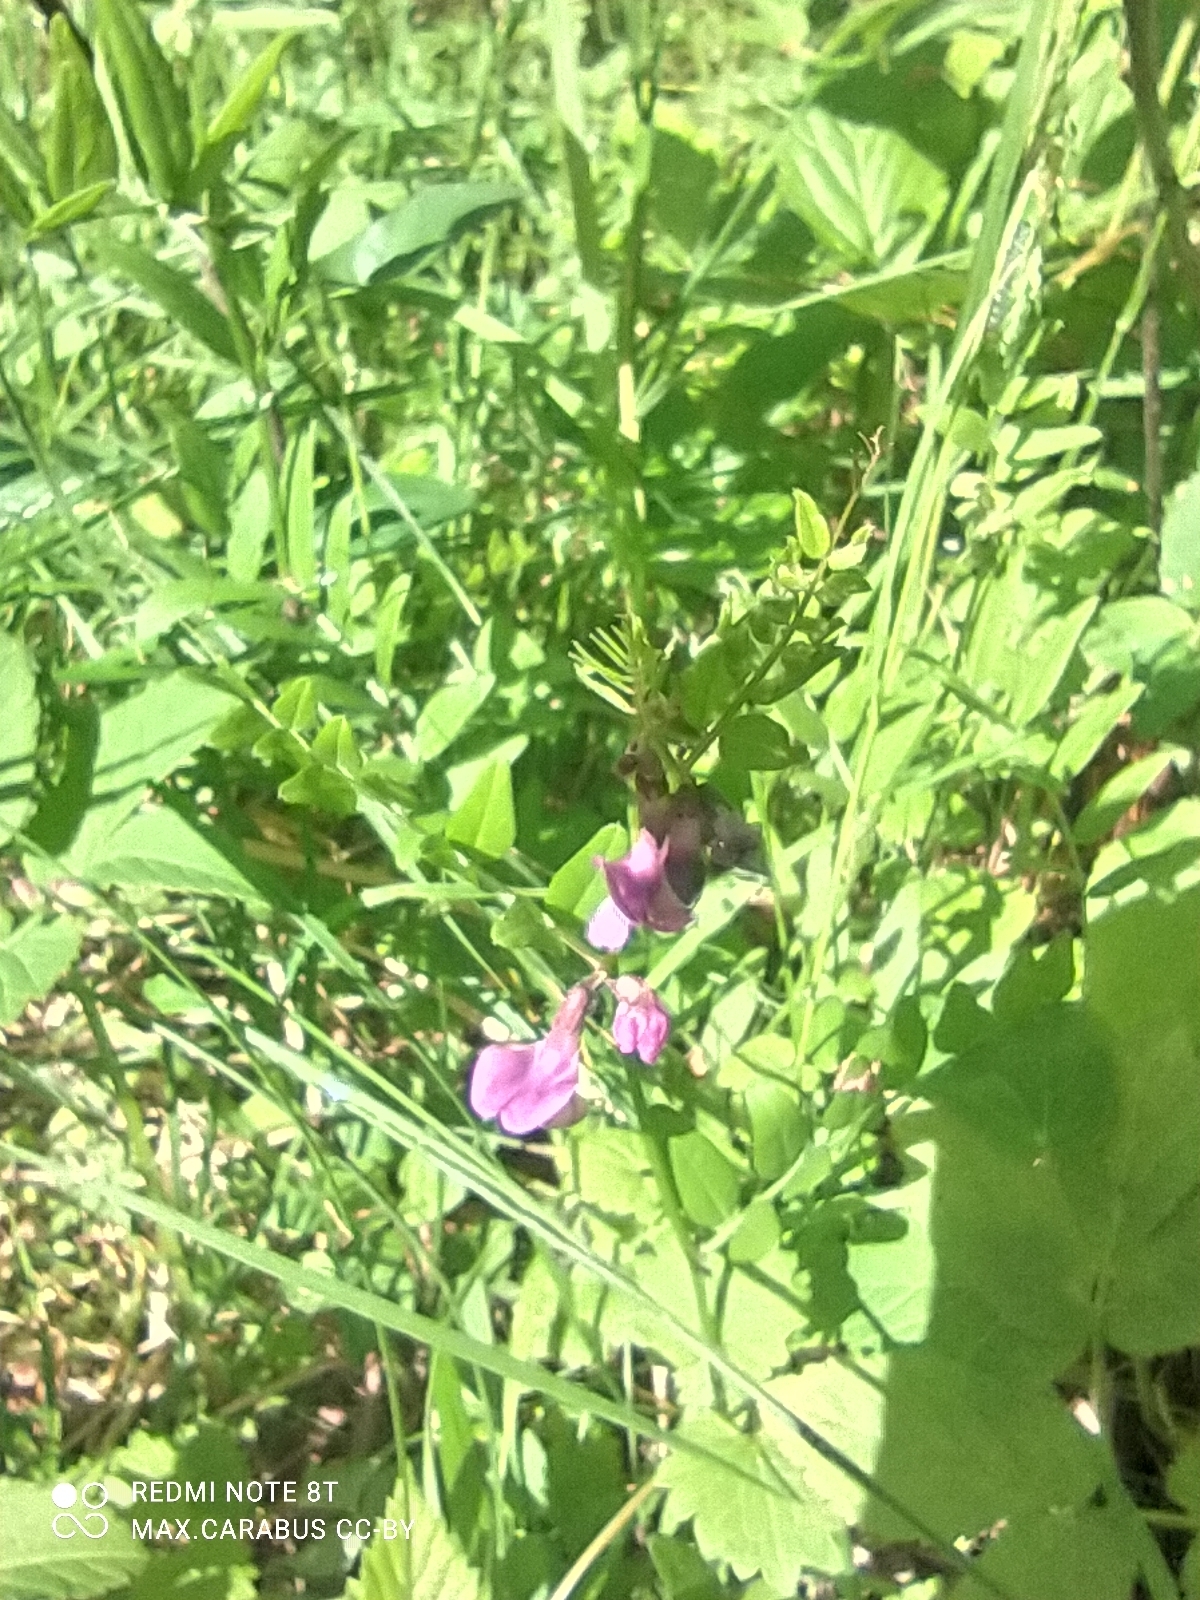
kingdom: Plantae
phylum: Tracheophyta
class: Magnoliopsida
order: Fabales
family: Fabaceae
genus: Vicia
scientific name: Vicia sepium
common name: Bush vetch
